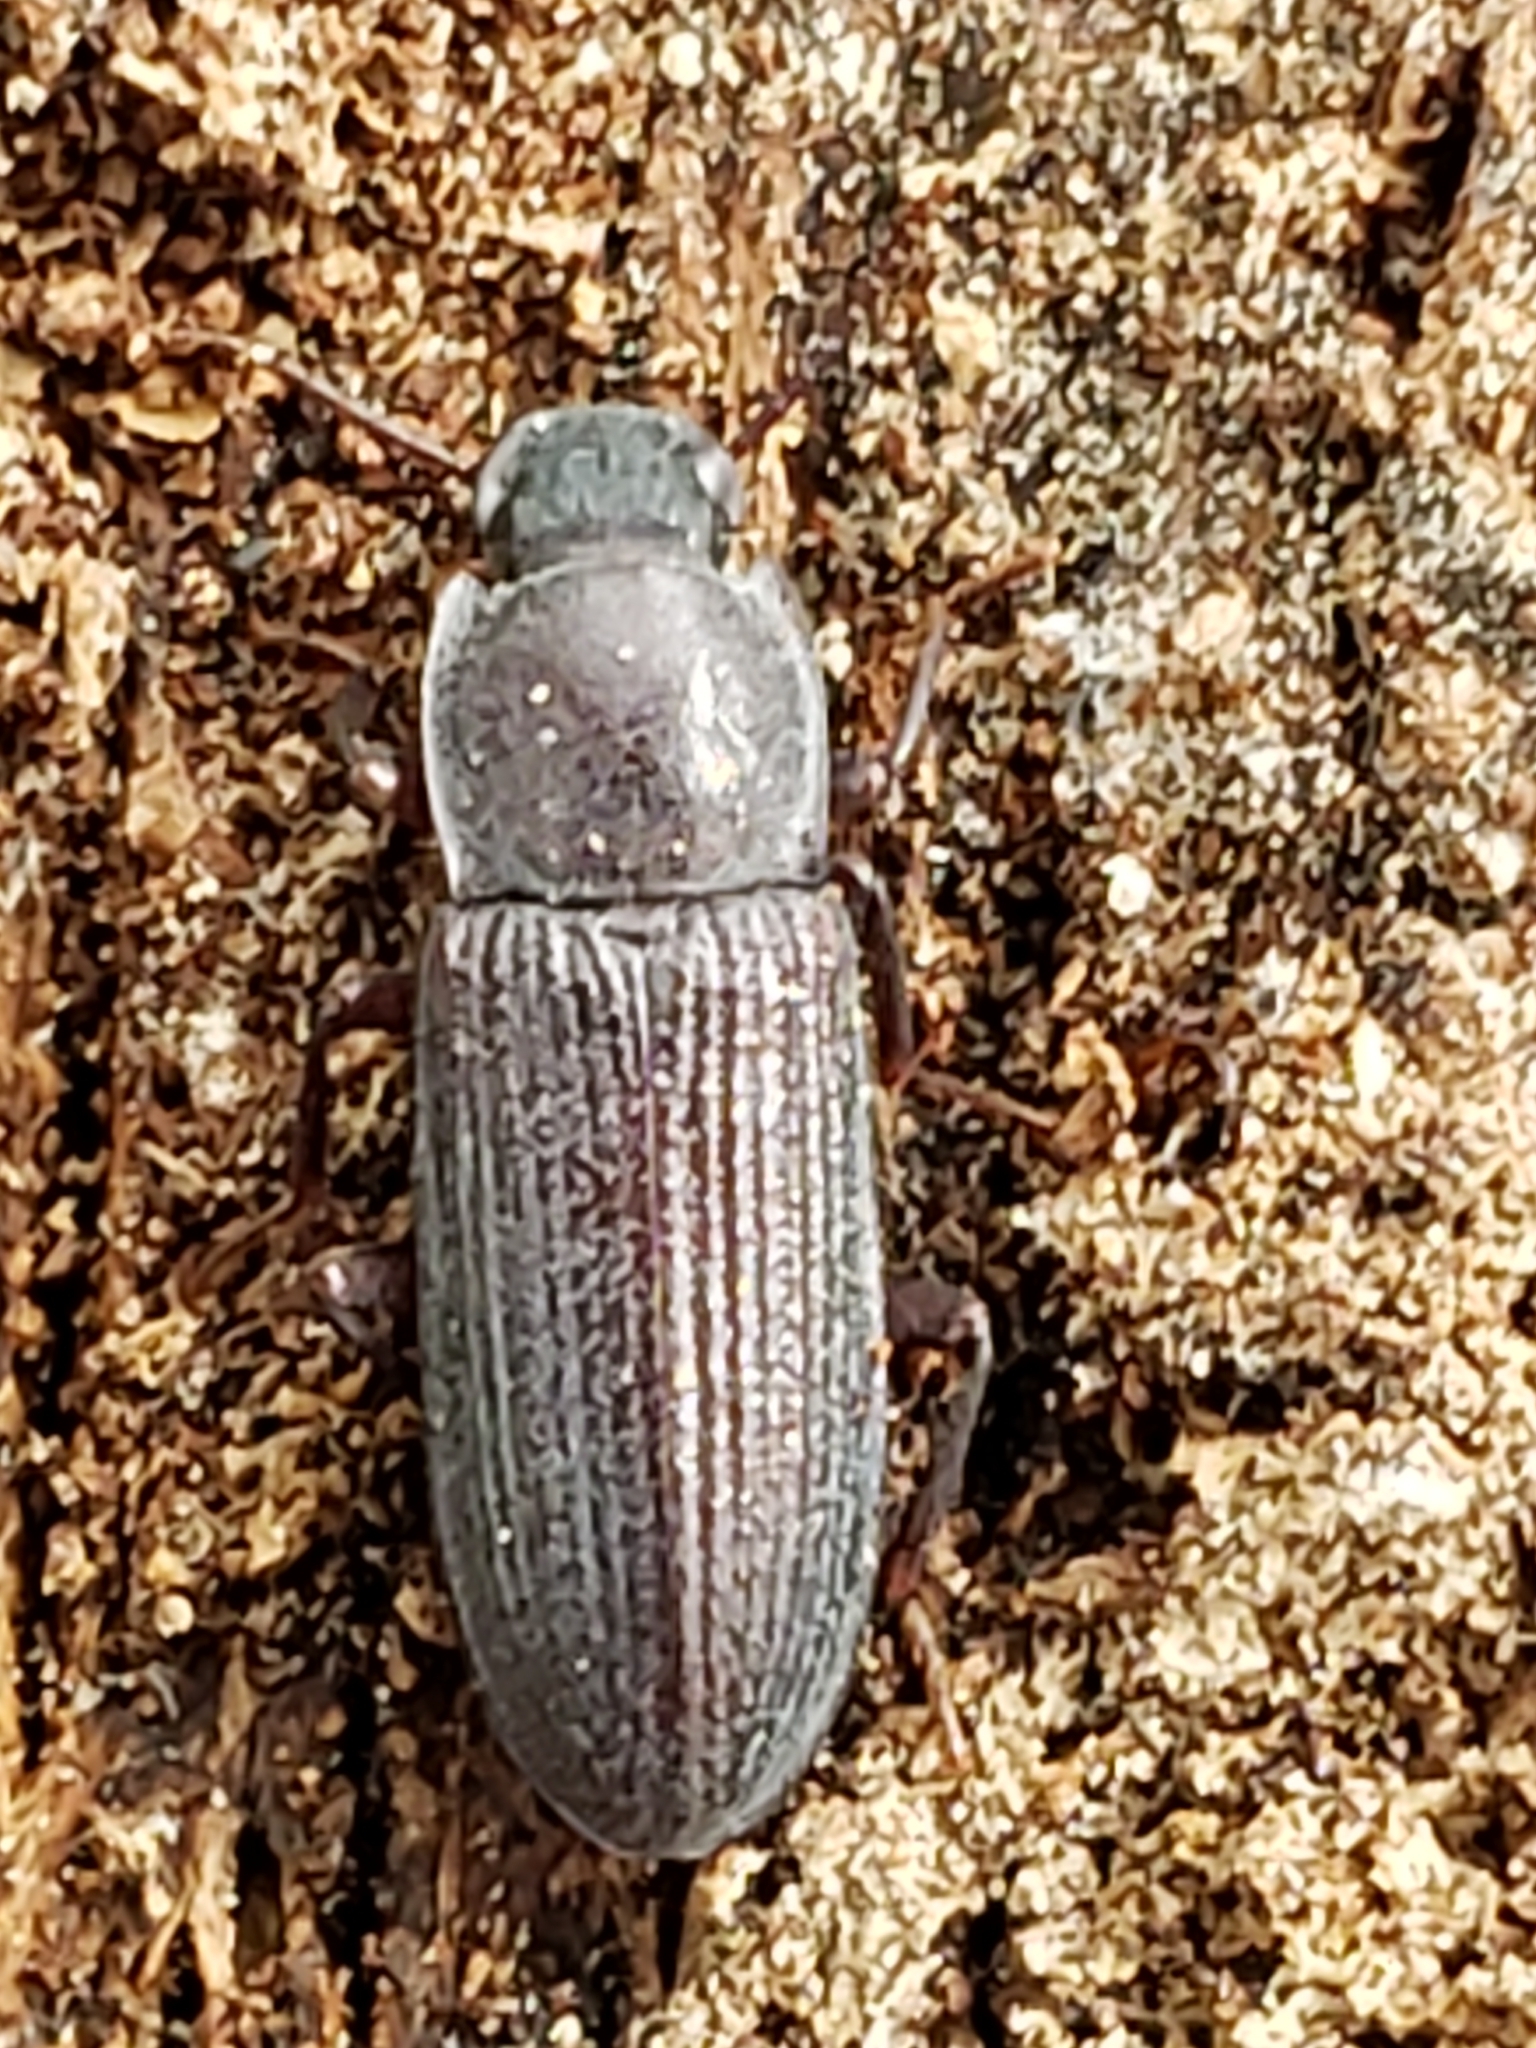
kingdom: Animalia
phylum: Arthropoda
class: Insecta
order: Coleoptera
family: Tenebrionidae
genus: Idiobates
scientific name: Idiobates castaneus
